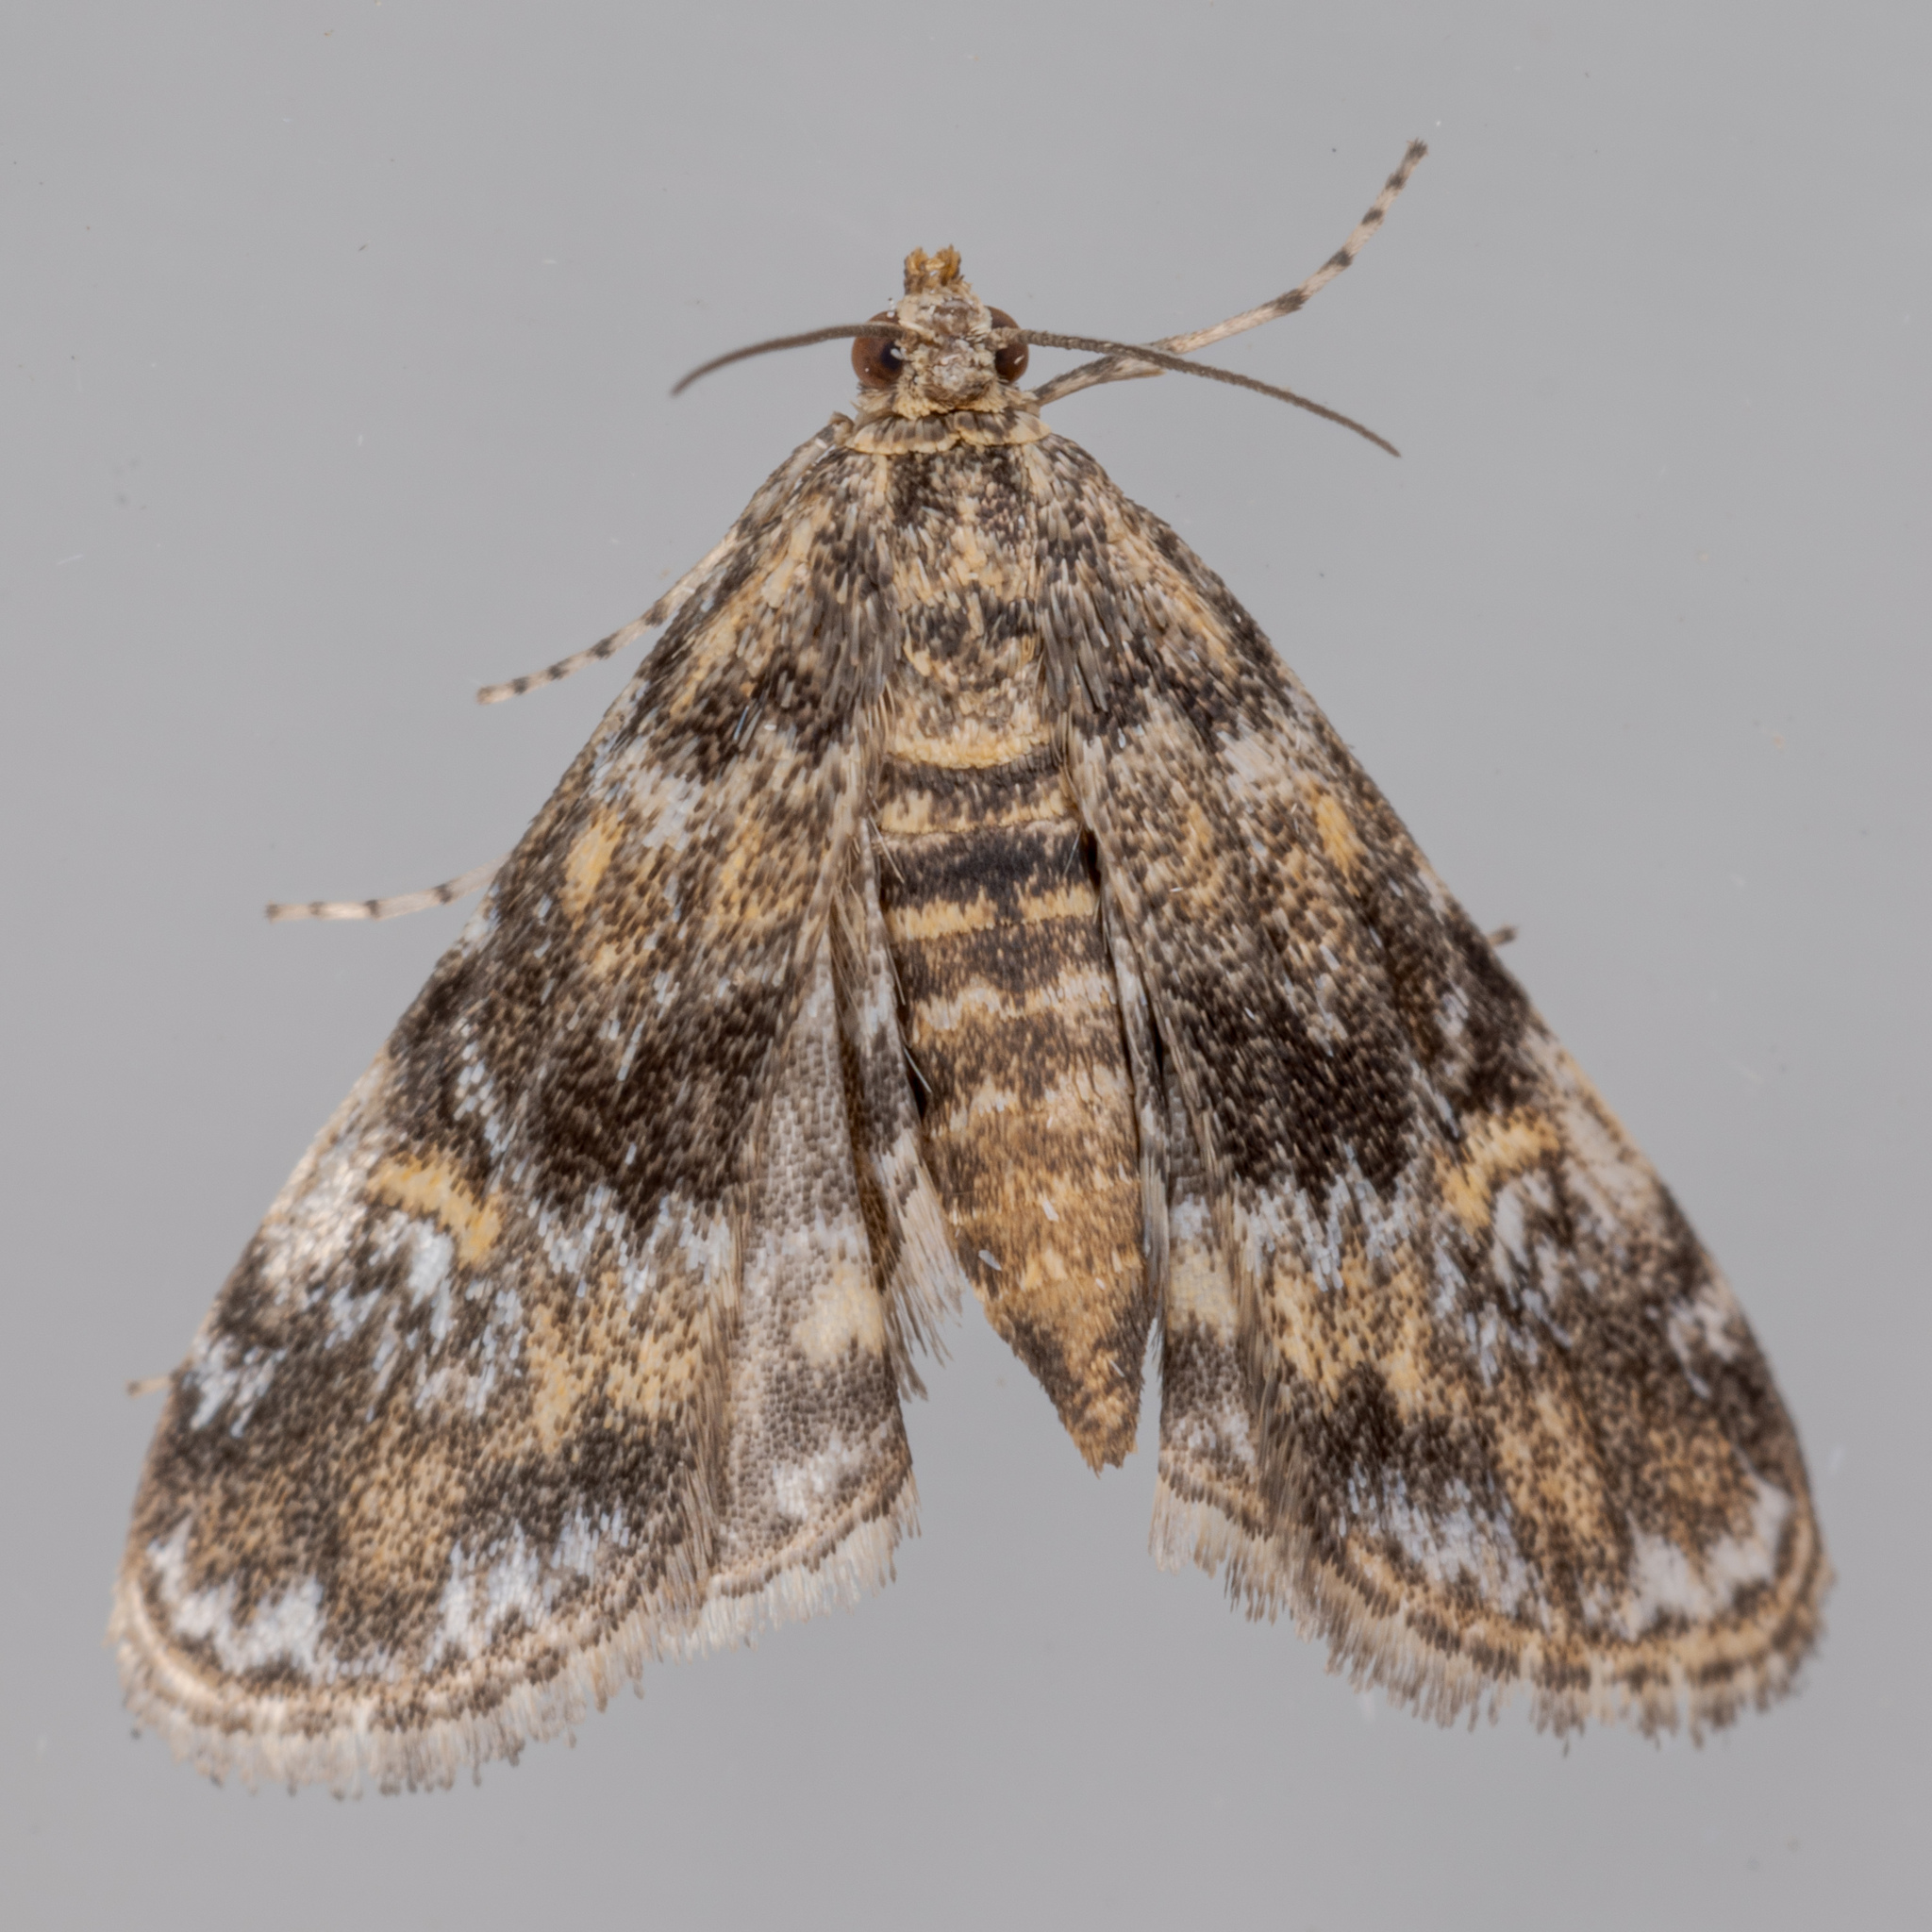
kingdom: Animalia
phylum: Arthropoda
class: Insecta
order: Lepidoptera
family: Crambidae
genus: Elophila
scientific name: Elophila obliteralis
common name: Waterlily leafcutter moth
